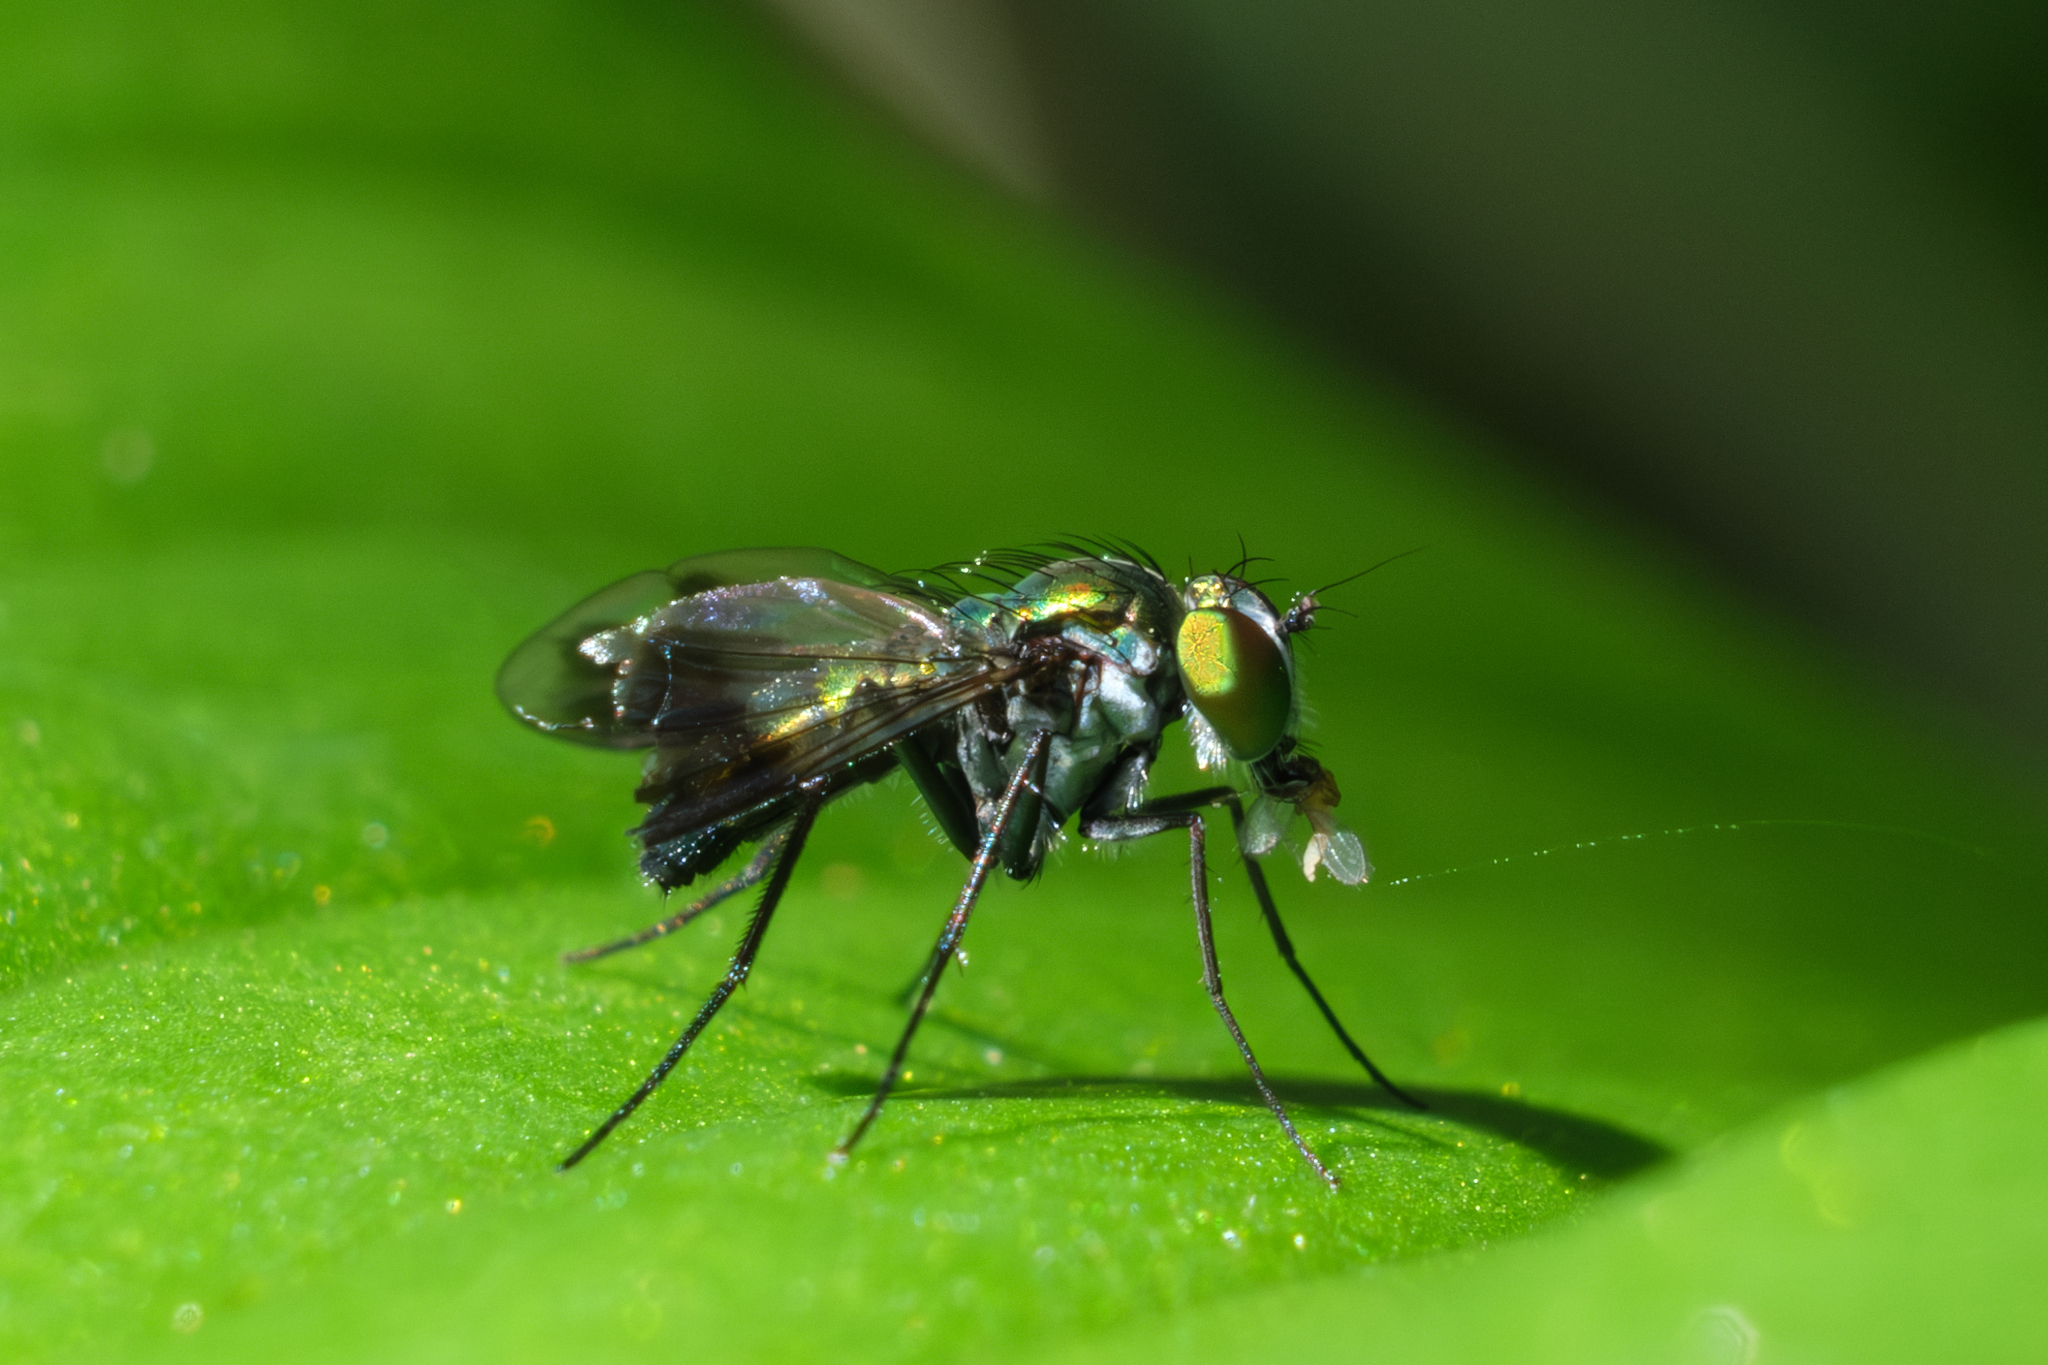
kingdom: Animalia
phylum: Arthropoda
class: Insecta
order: Diptera
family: Dolichopodidae
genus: Condylostylus
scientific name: Condylostylus patibulatus
